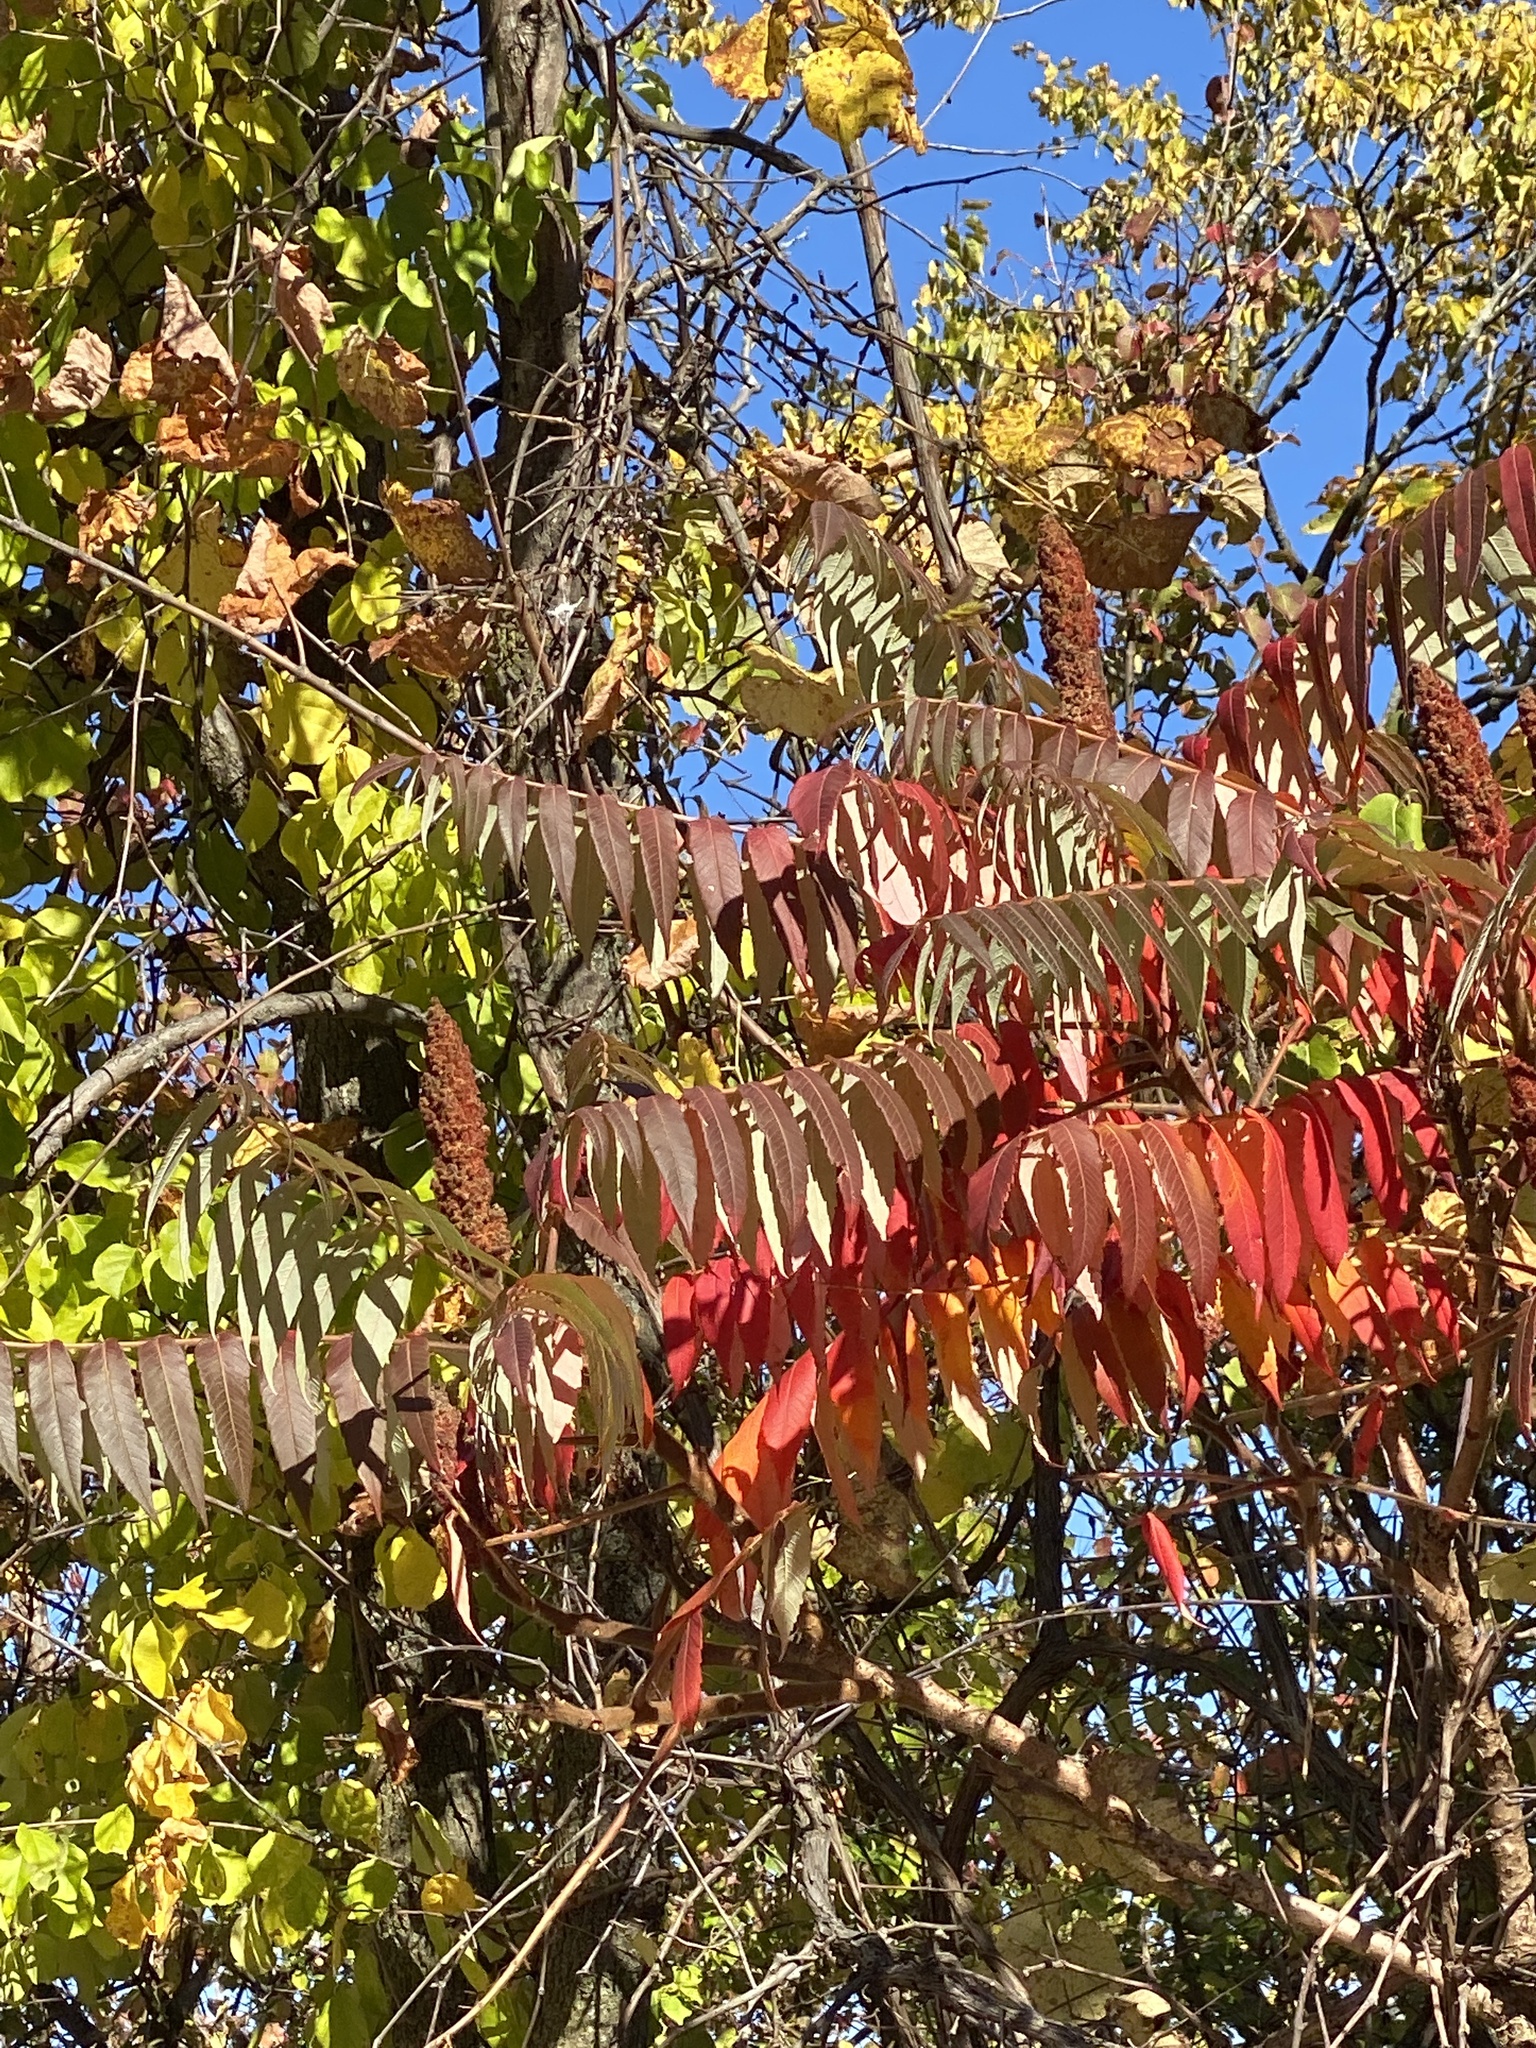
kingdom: Plantae
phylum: Tracheophyta
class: Magnoliopsida
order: Sapindales
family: Anacardiaceae
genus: Rhus
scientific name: Rhus typhina
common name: Staghorn sumac
